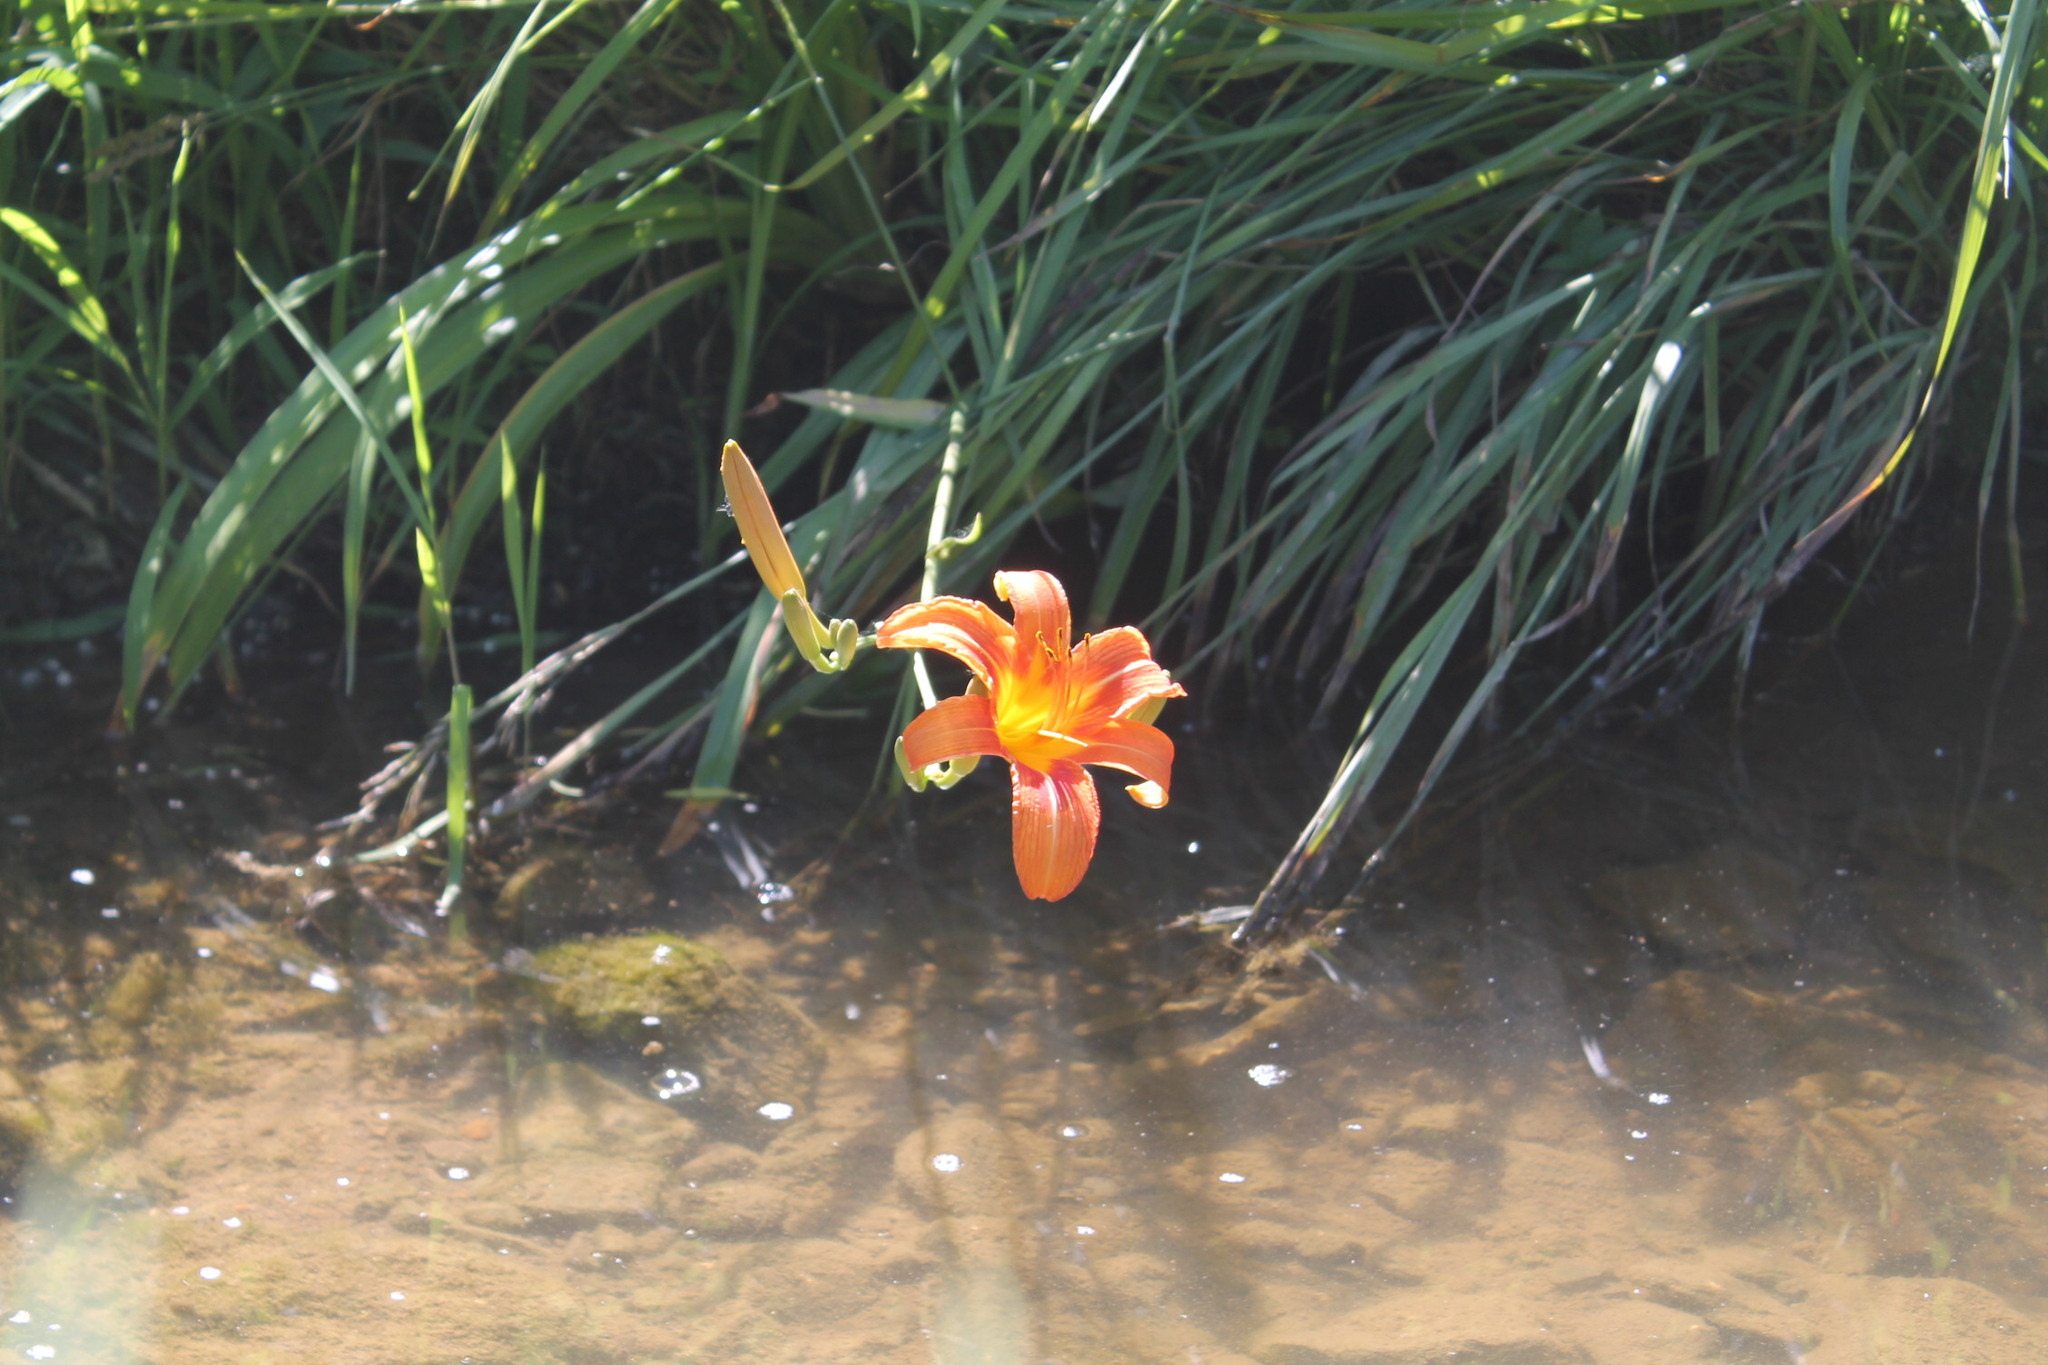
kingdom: Plantae
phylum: Tracheophyta
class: Liliopsida
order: Asparagales
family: Asphodelaceae
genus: Hemerocallis
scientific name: Hemerocallis fulva
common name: Orange day-lily
